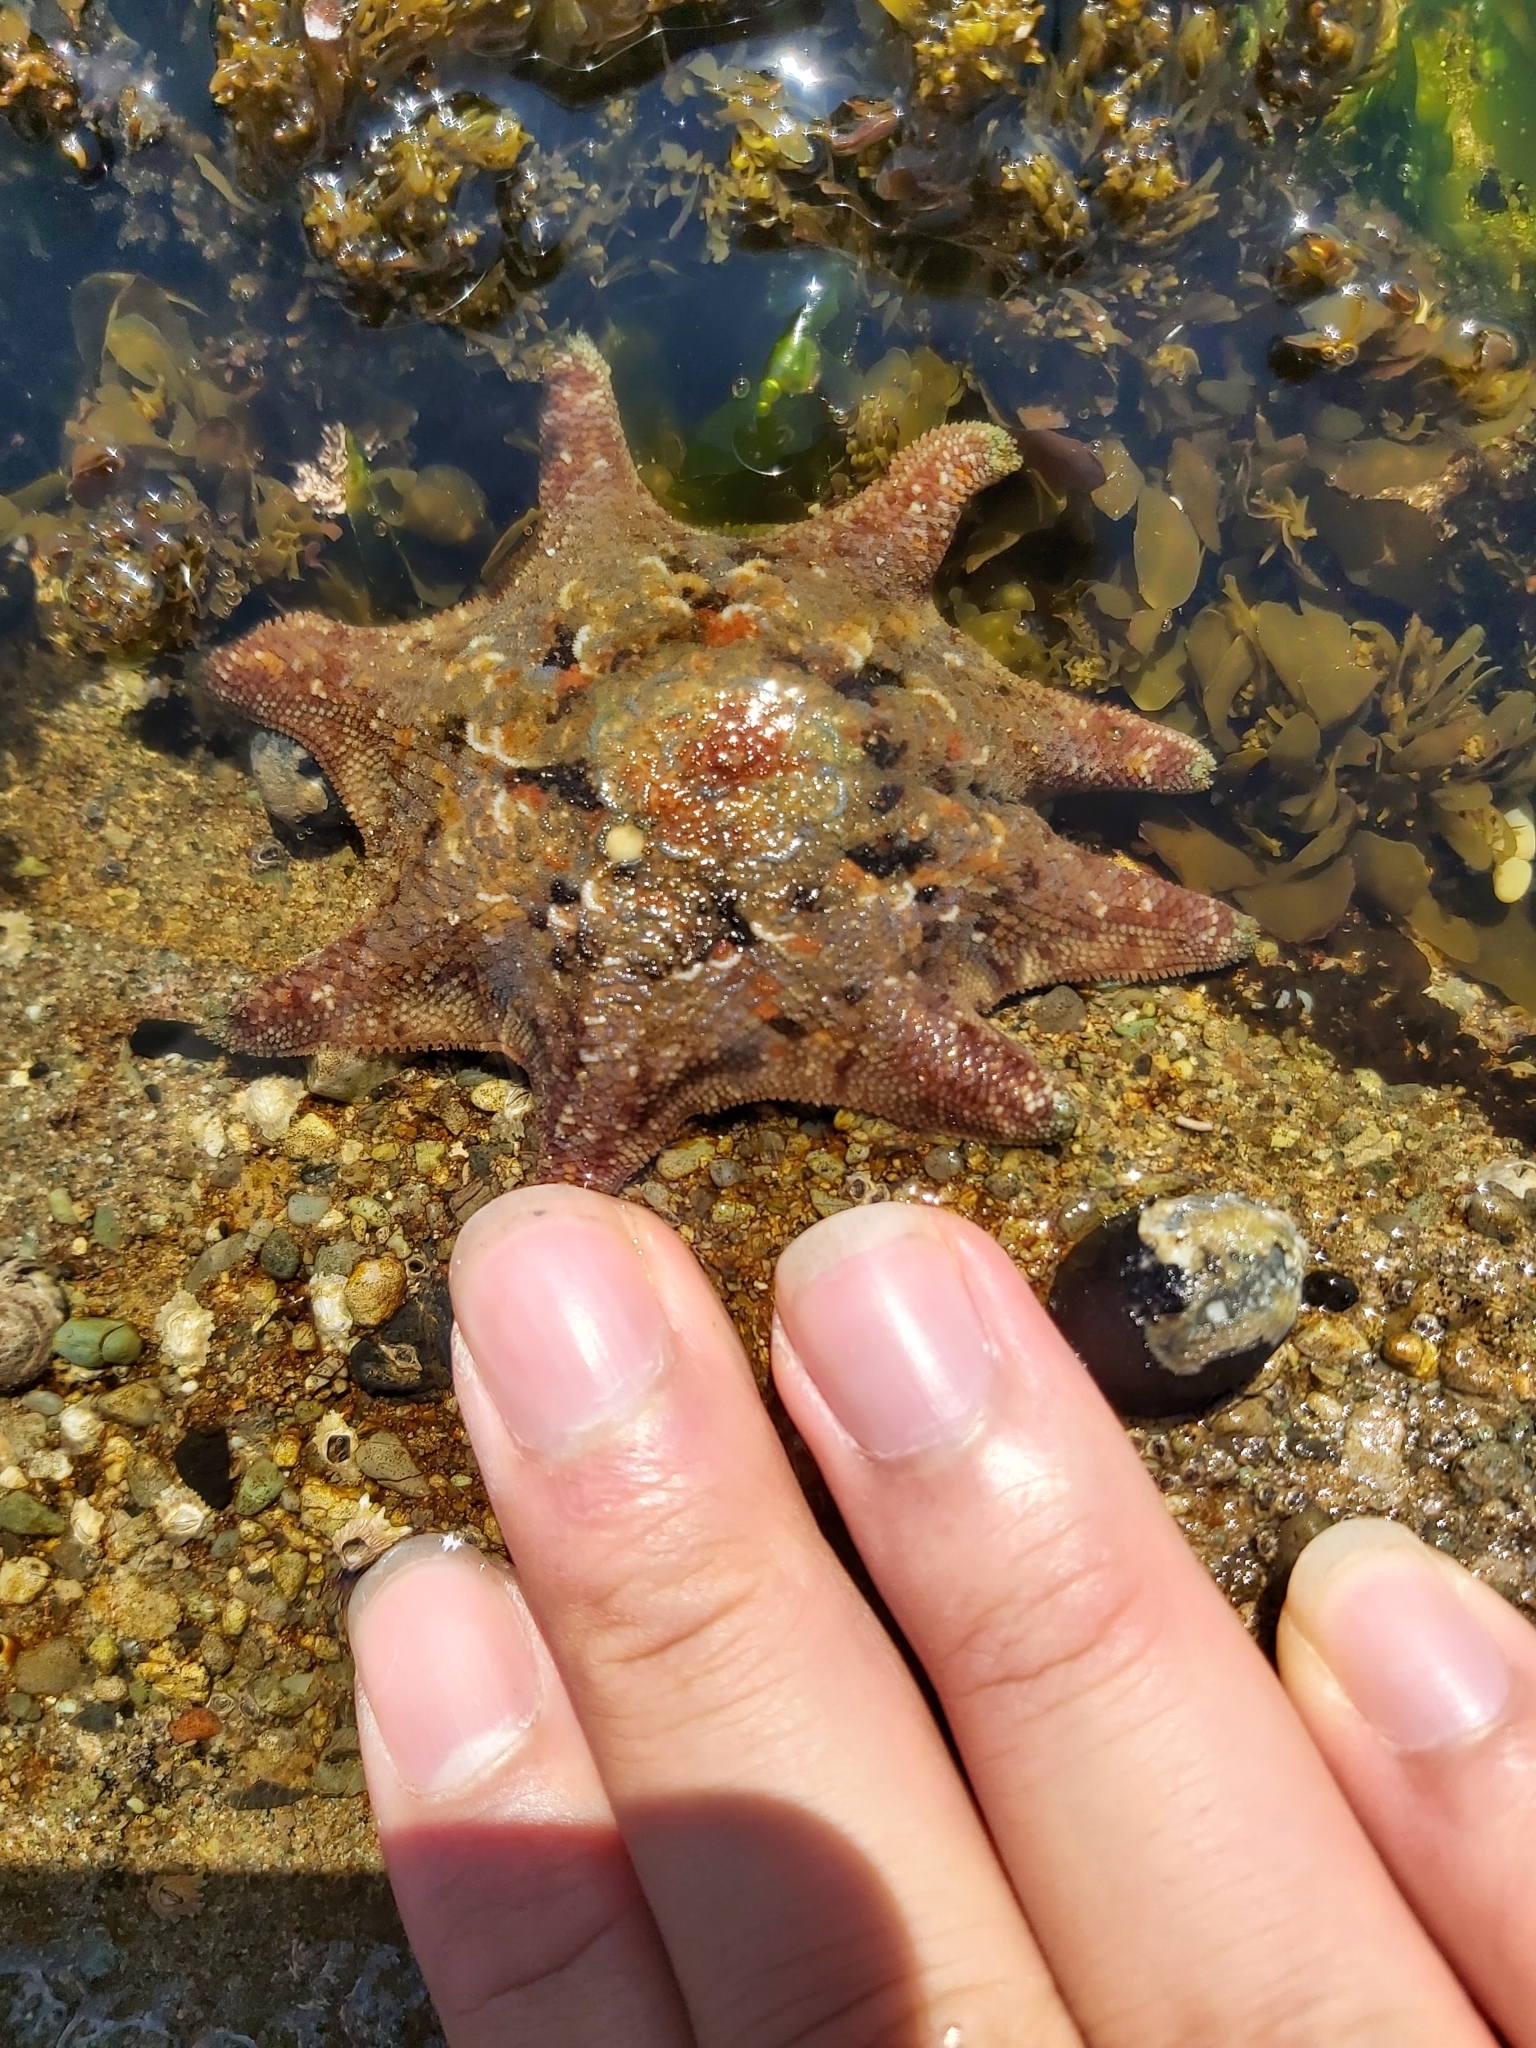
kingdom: Animalia
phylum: Echinodermata
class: Asteroidea
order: Valvatida
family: Asterinidae
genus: Meridiastra
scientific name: Meridiastra calcar
